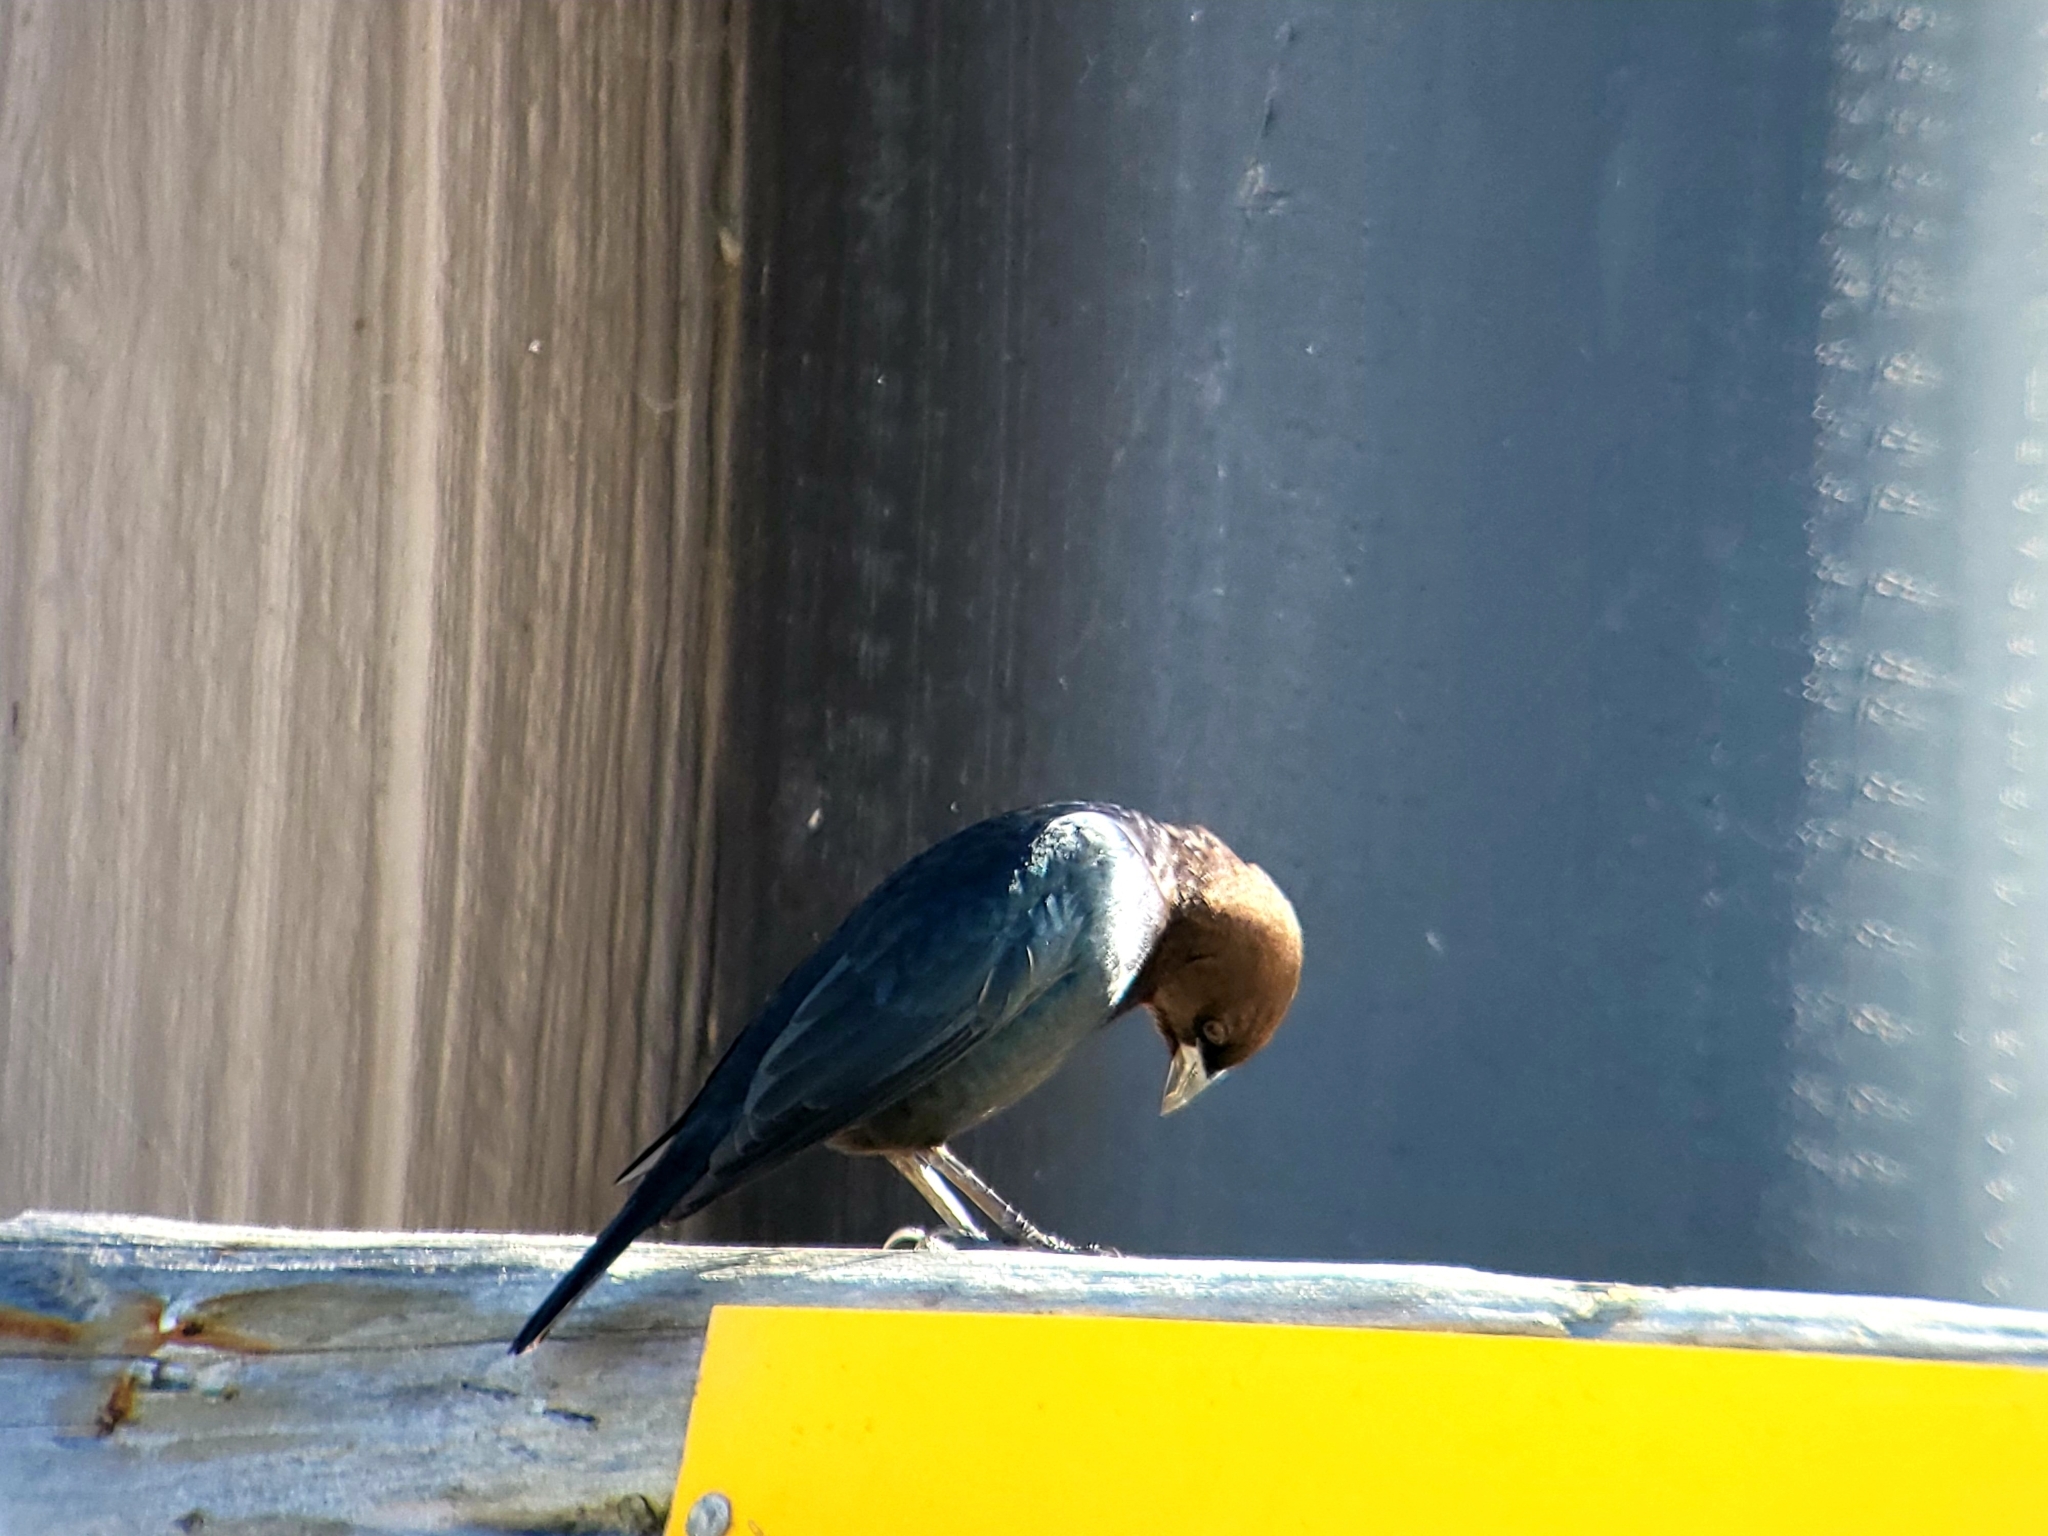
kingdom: Animalia
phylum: Chordata
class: Aves
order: Passeriformes
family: Icteridae
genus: Molothrus
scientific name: Molothrus ater
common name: Brown-headed cowbird
